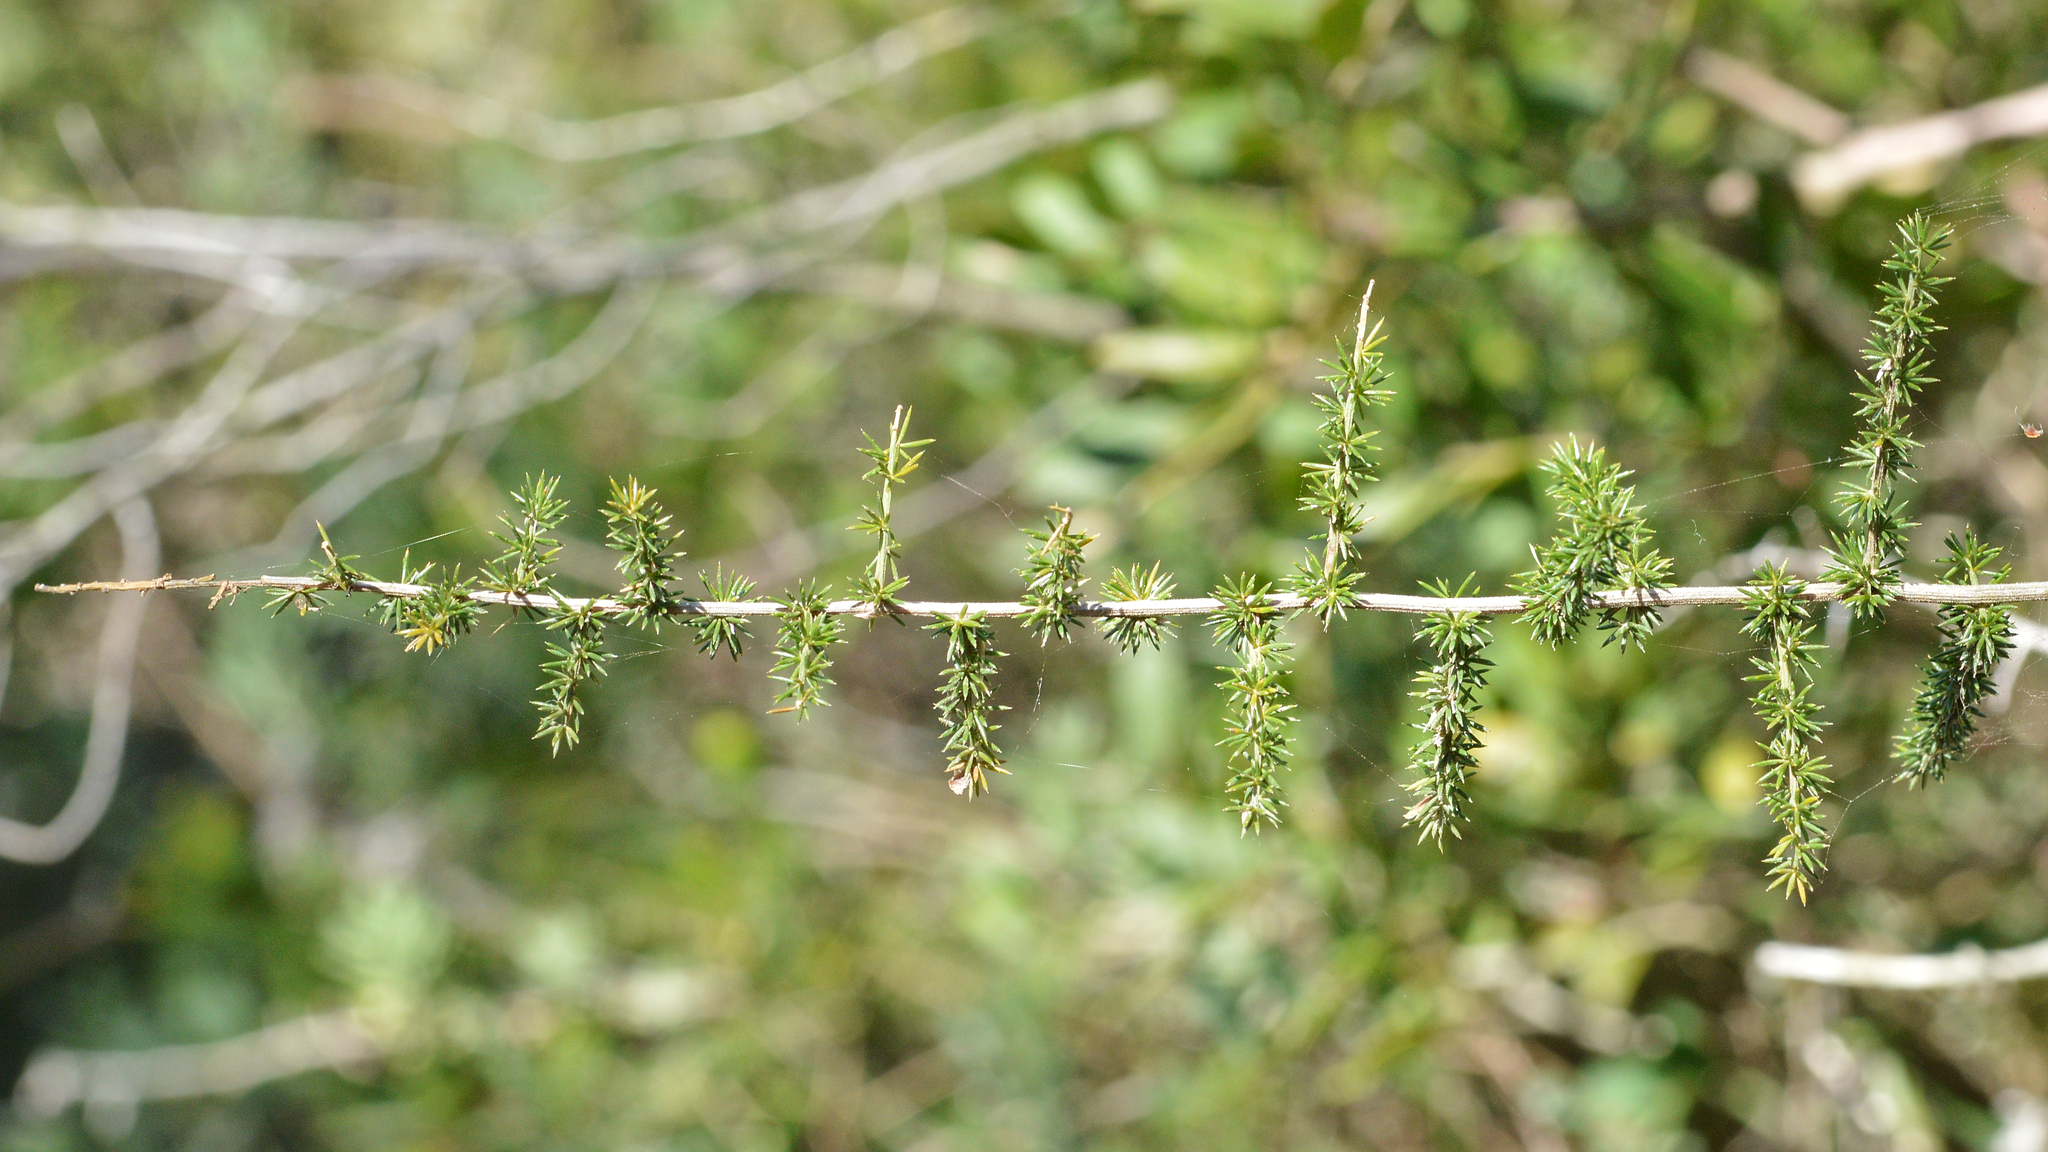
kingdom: Plantae
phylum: Tracheophyta
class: Liliopsida
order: Asparagales
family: Asparagaceae
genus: Asparagus
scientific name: Asparagus acutifolius
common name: Wild asparagus
